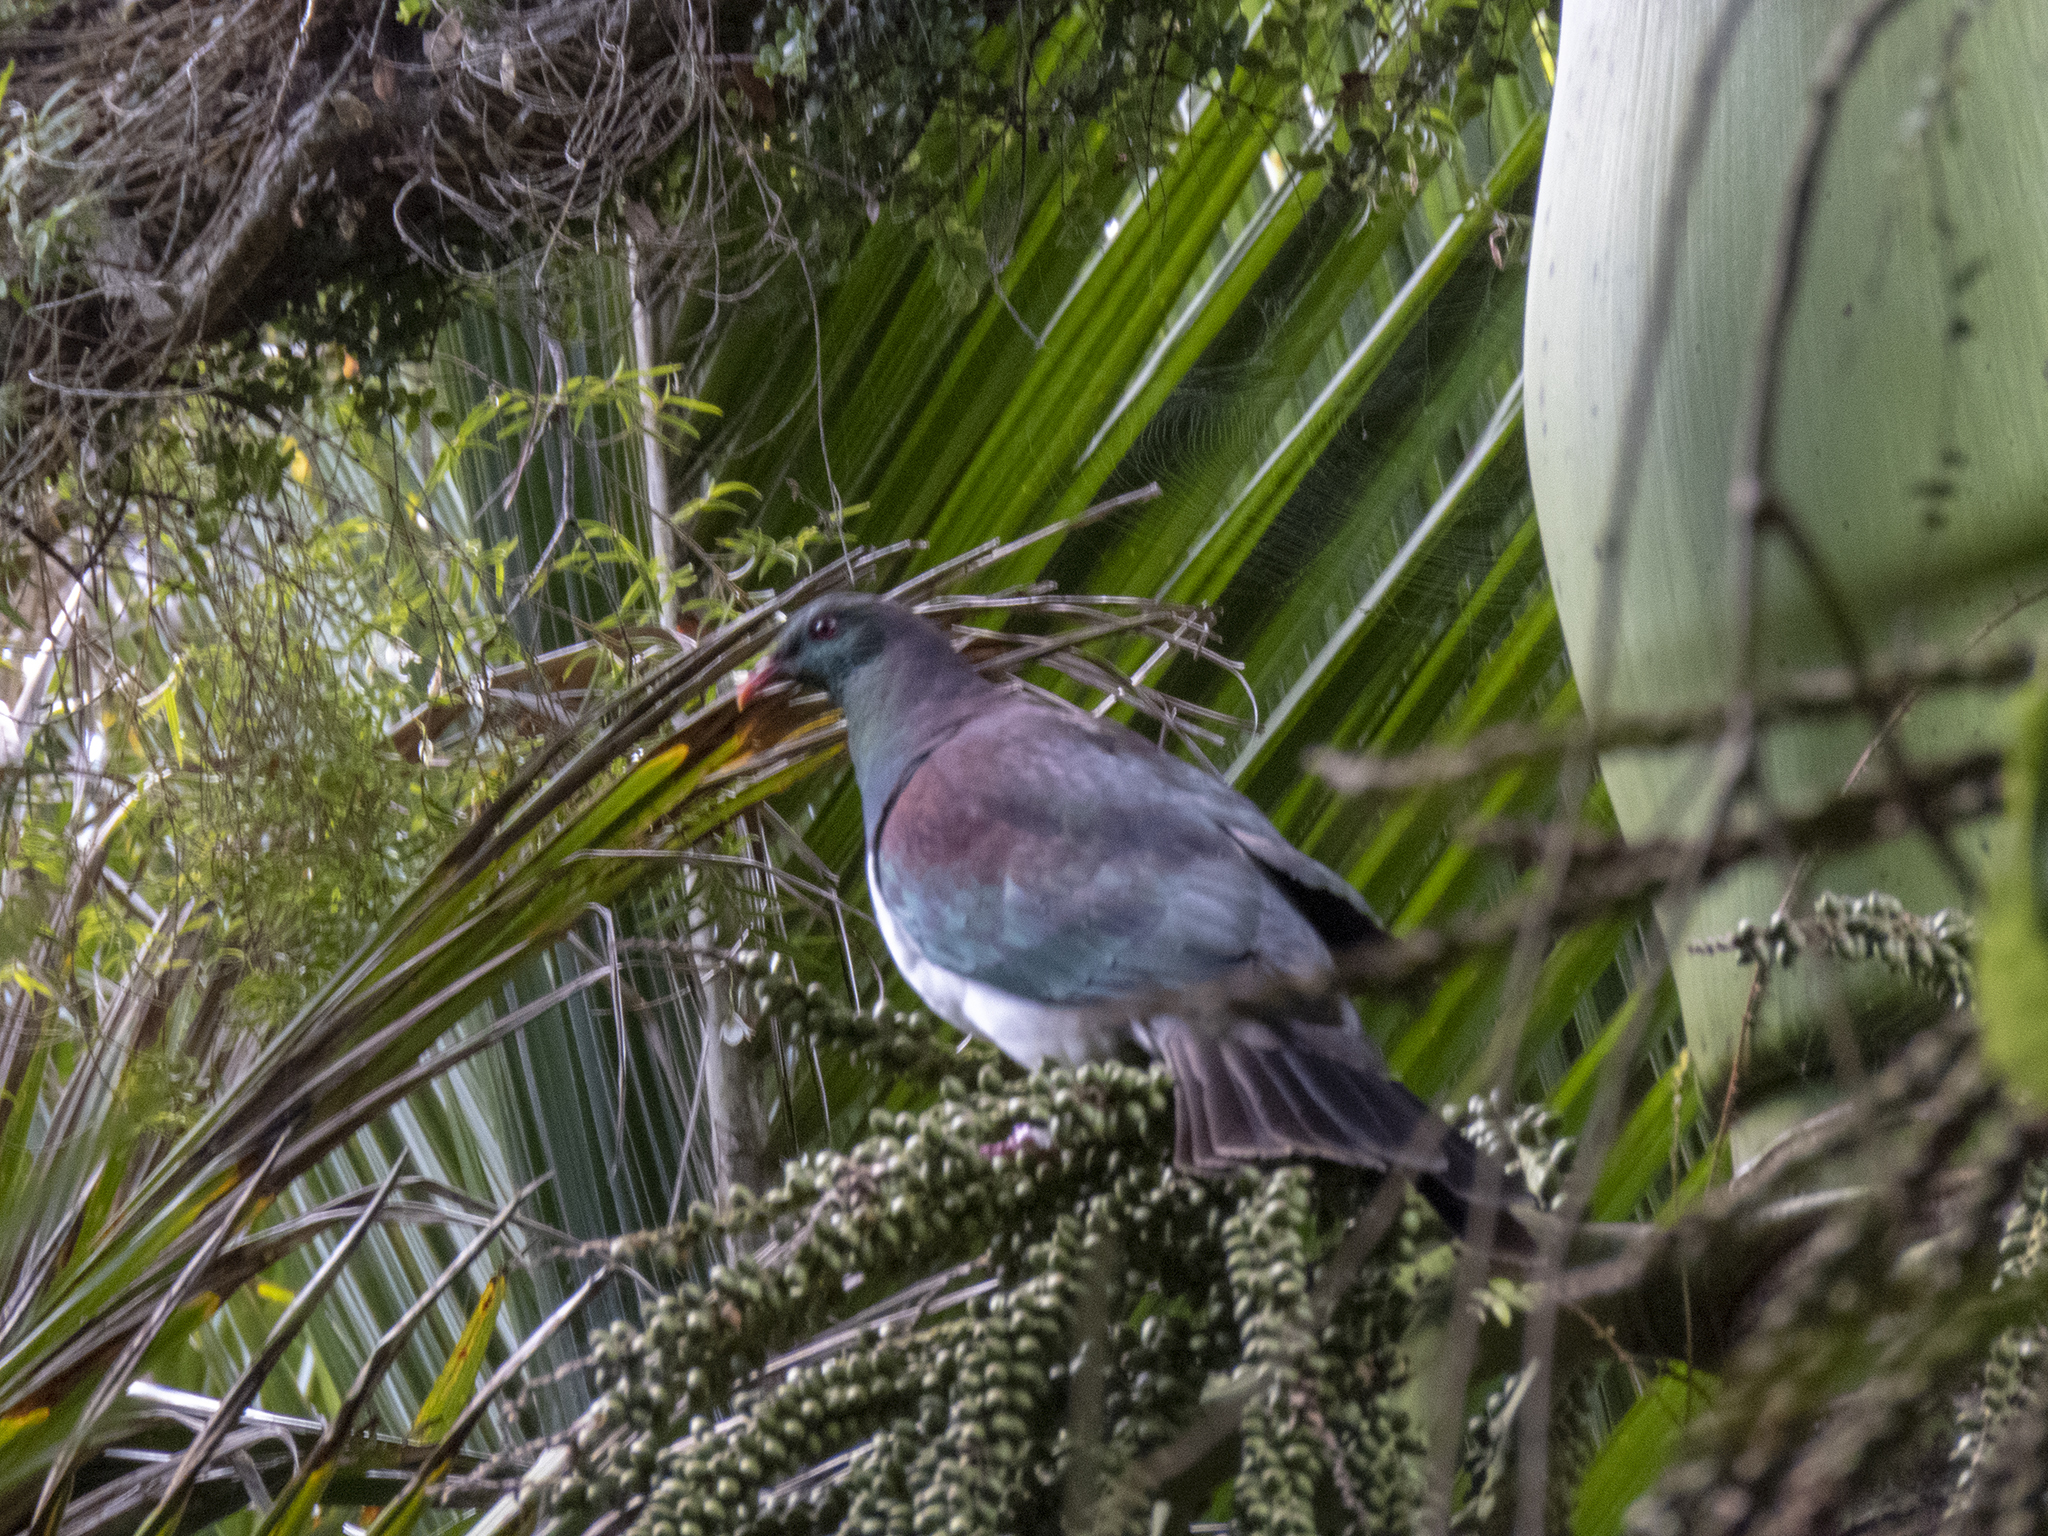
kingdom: Animalia
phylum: Chordata
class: Aves
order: Columbiformes
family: Columbidae
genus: Hemiphaga
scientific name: Hemiphaga novaeseelandiae
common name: New zealand pigeon
